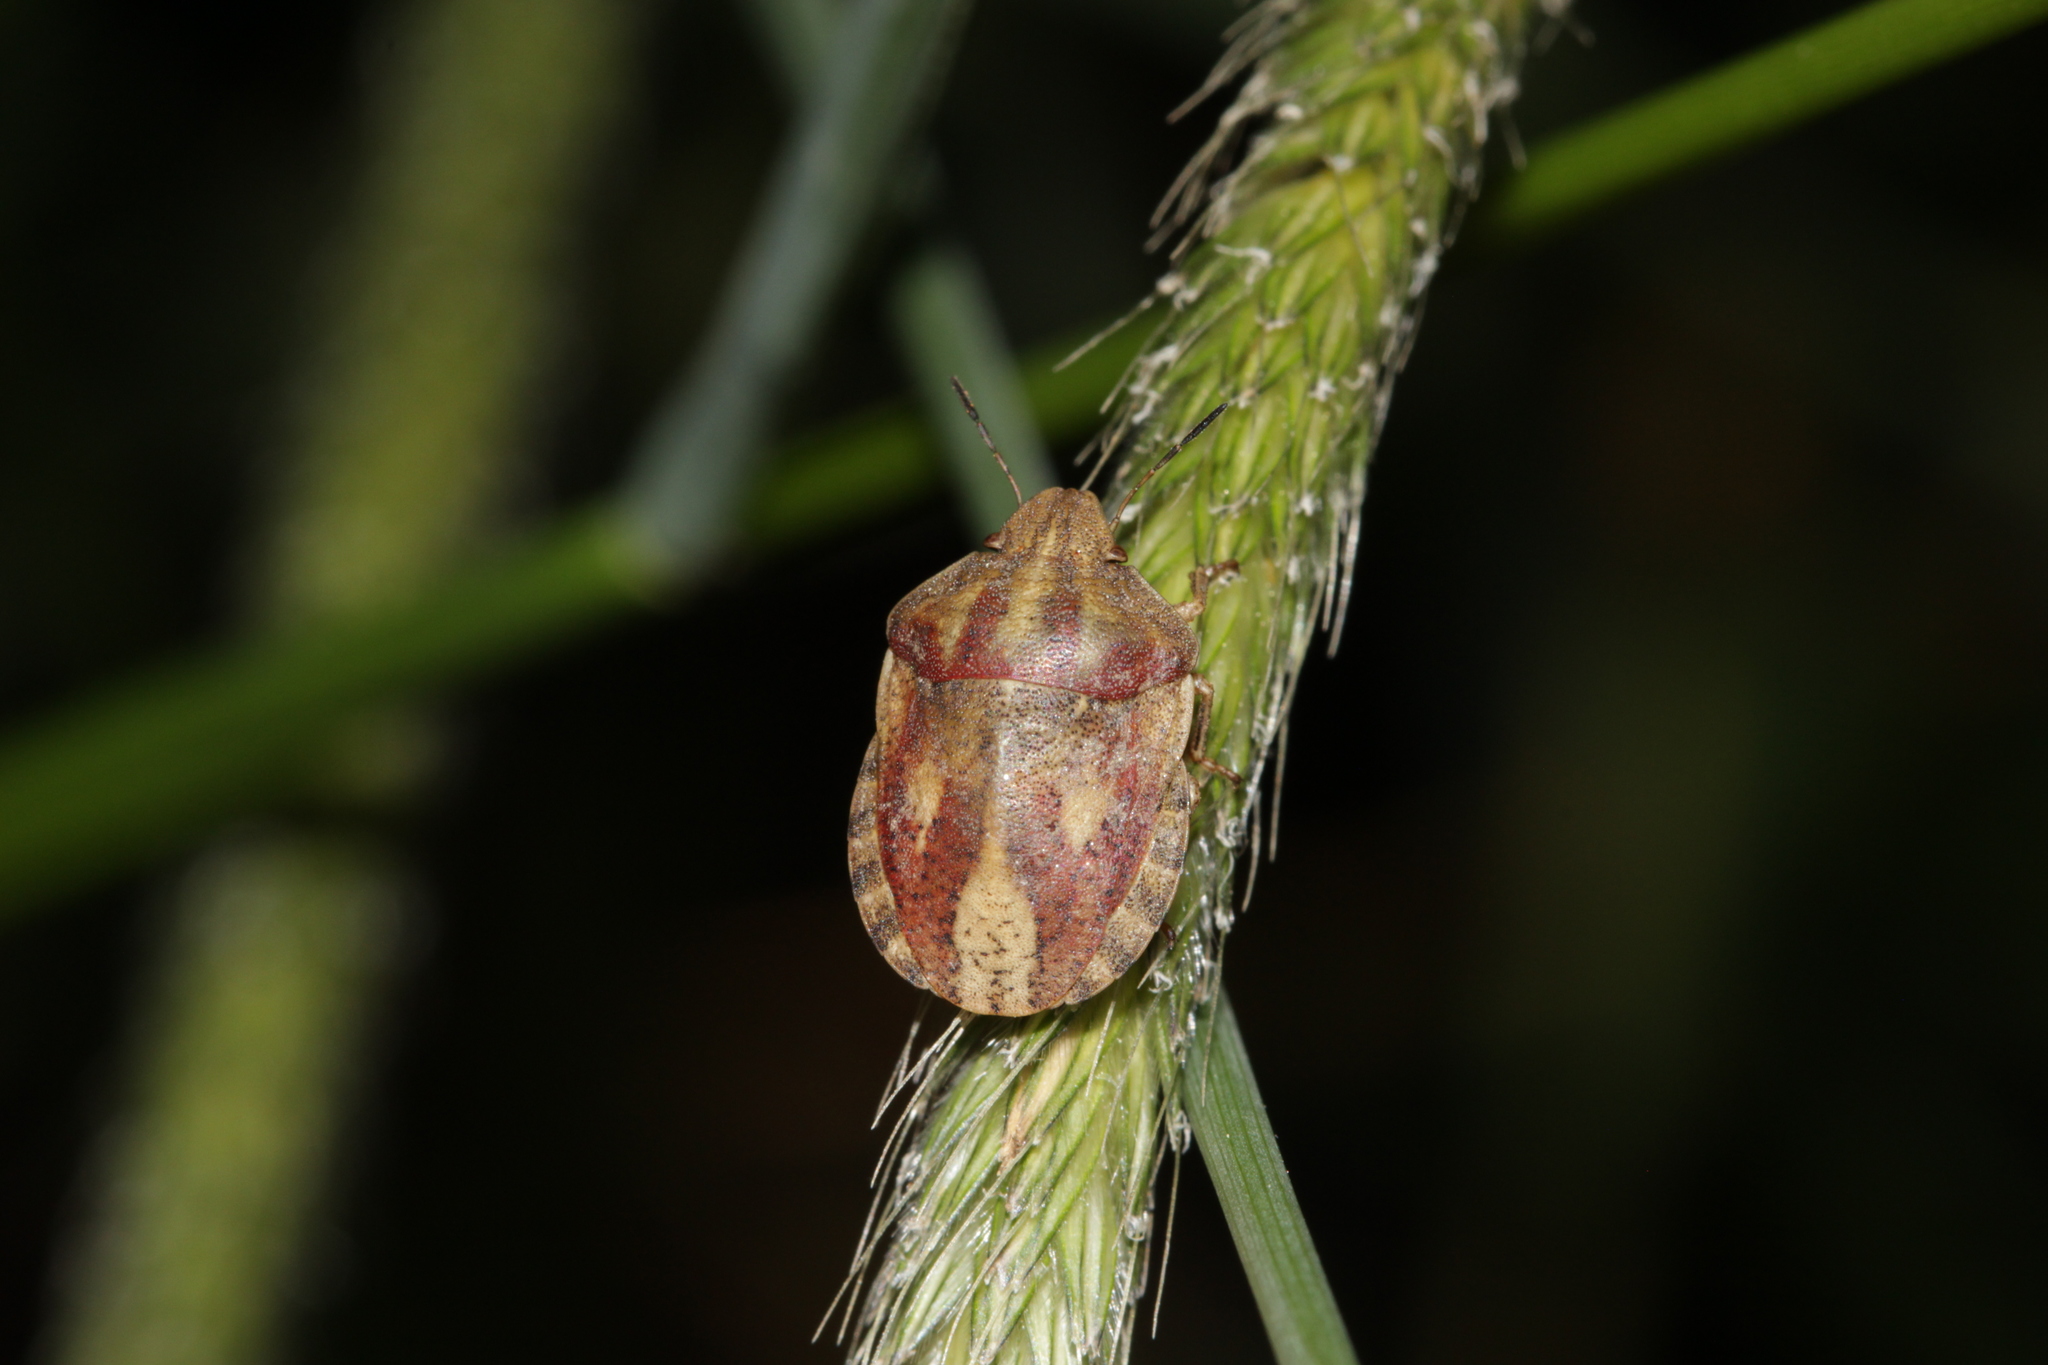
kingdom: Animalia
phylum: Arthropoda
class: Insecta
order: Hemiptera
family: Scutelleridae
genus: Eurygaster
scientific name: Eurygaster maura
